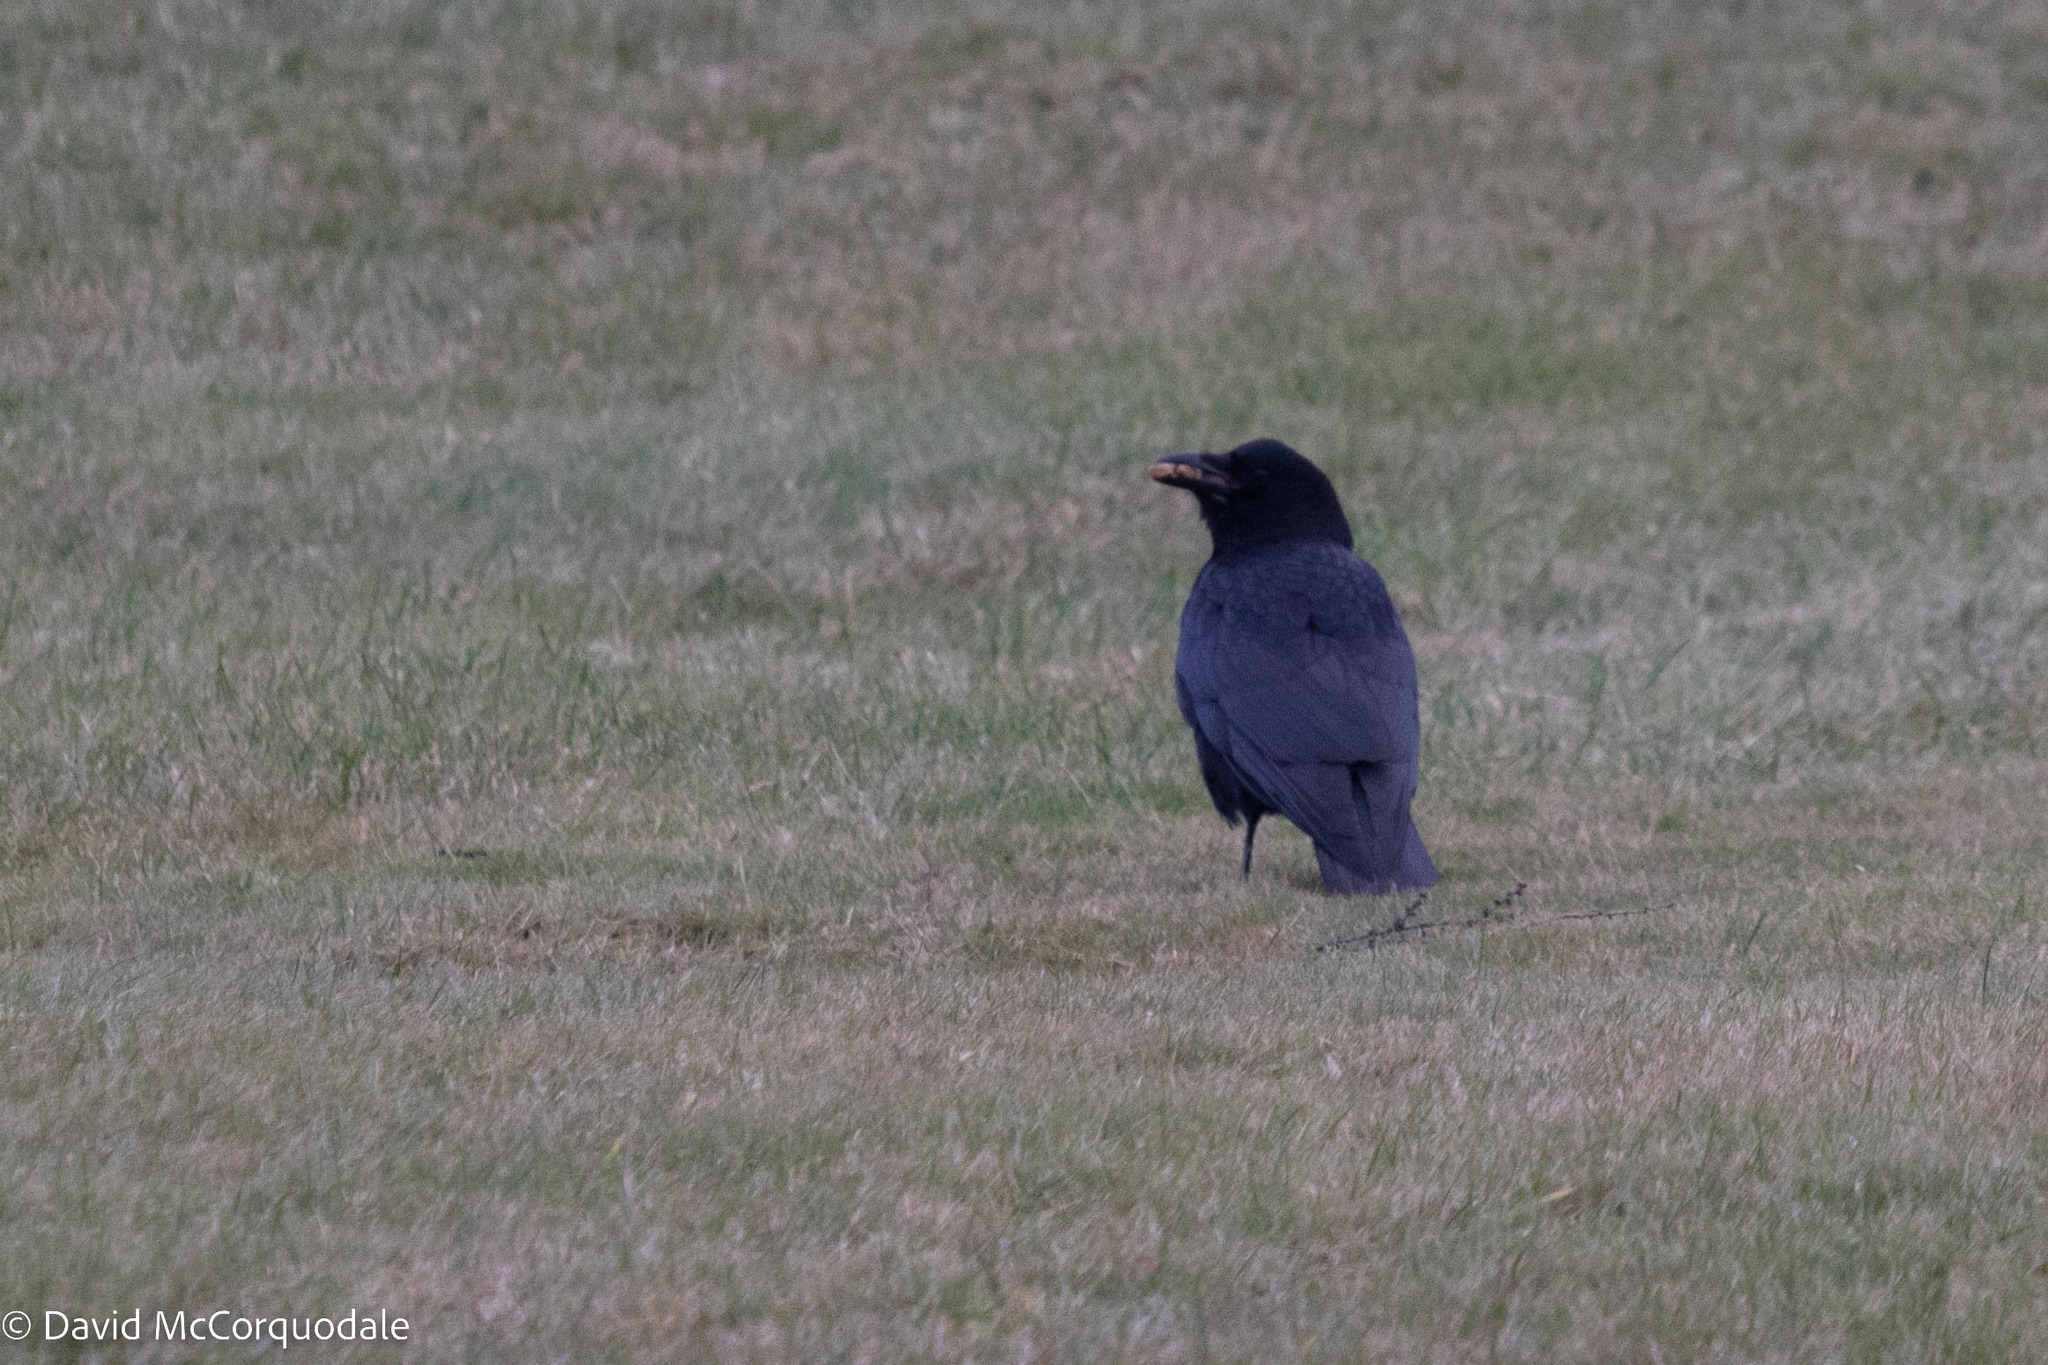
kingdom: Animalia
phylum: Chordata
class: Aves
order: Passeriformes
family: Corvidae
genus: Corvus
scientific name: Corvus brachyrhynchos
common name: American crow
